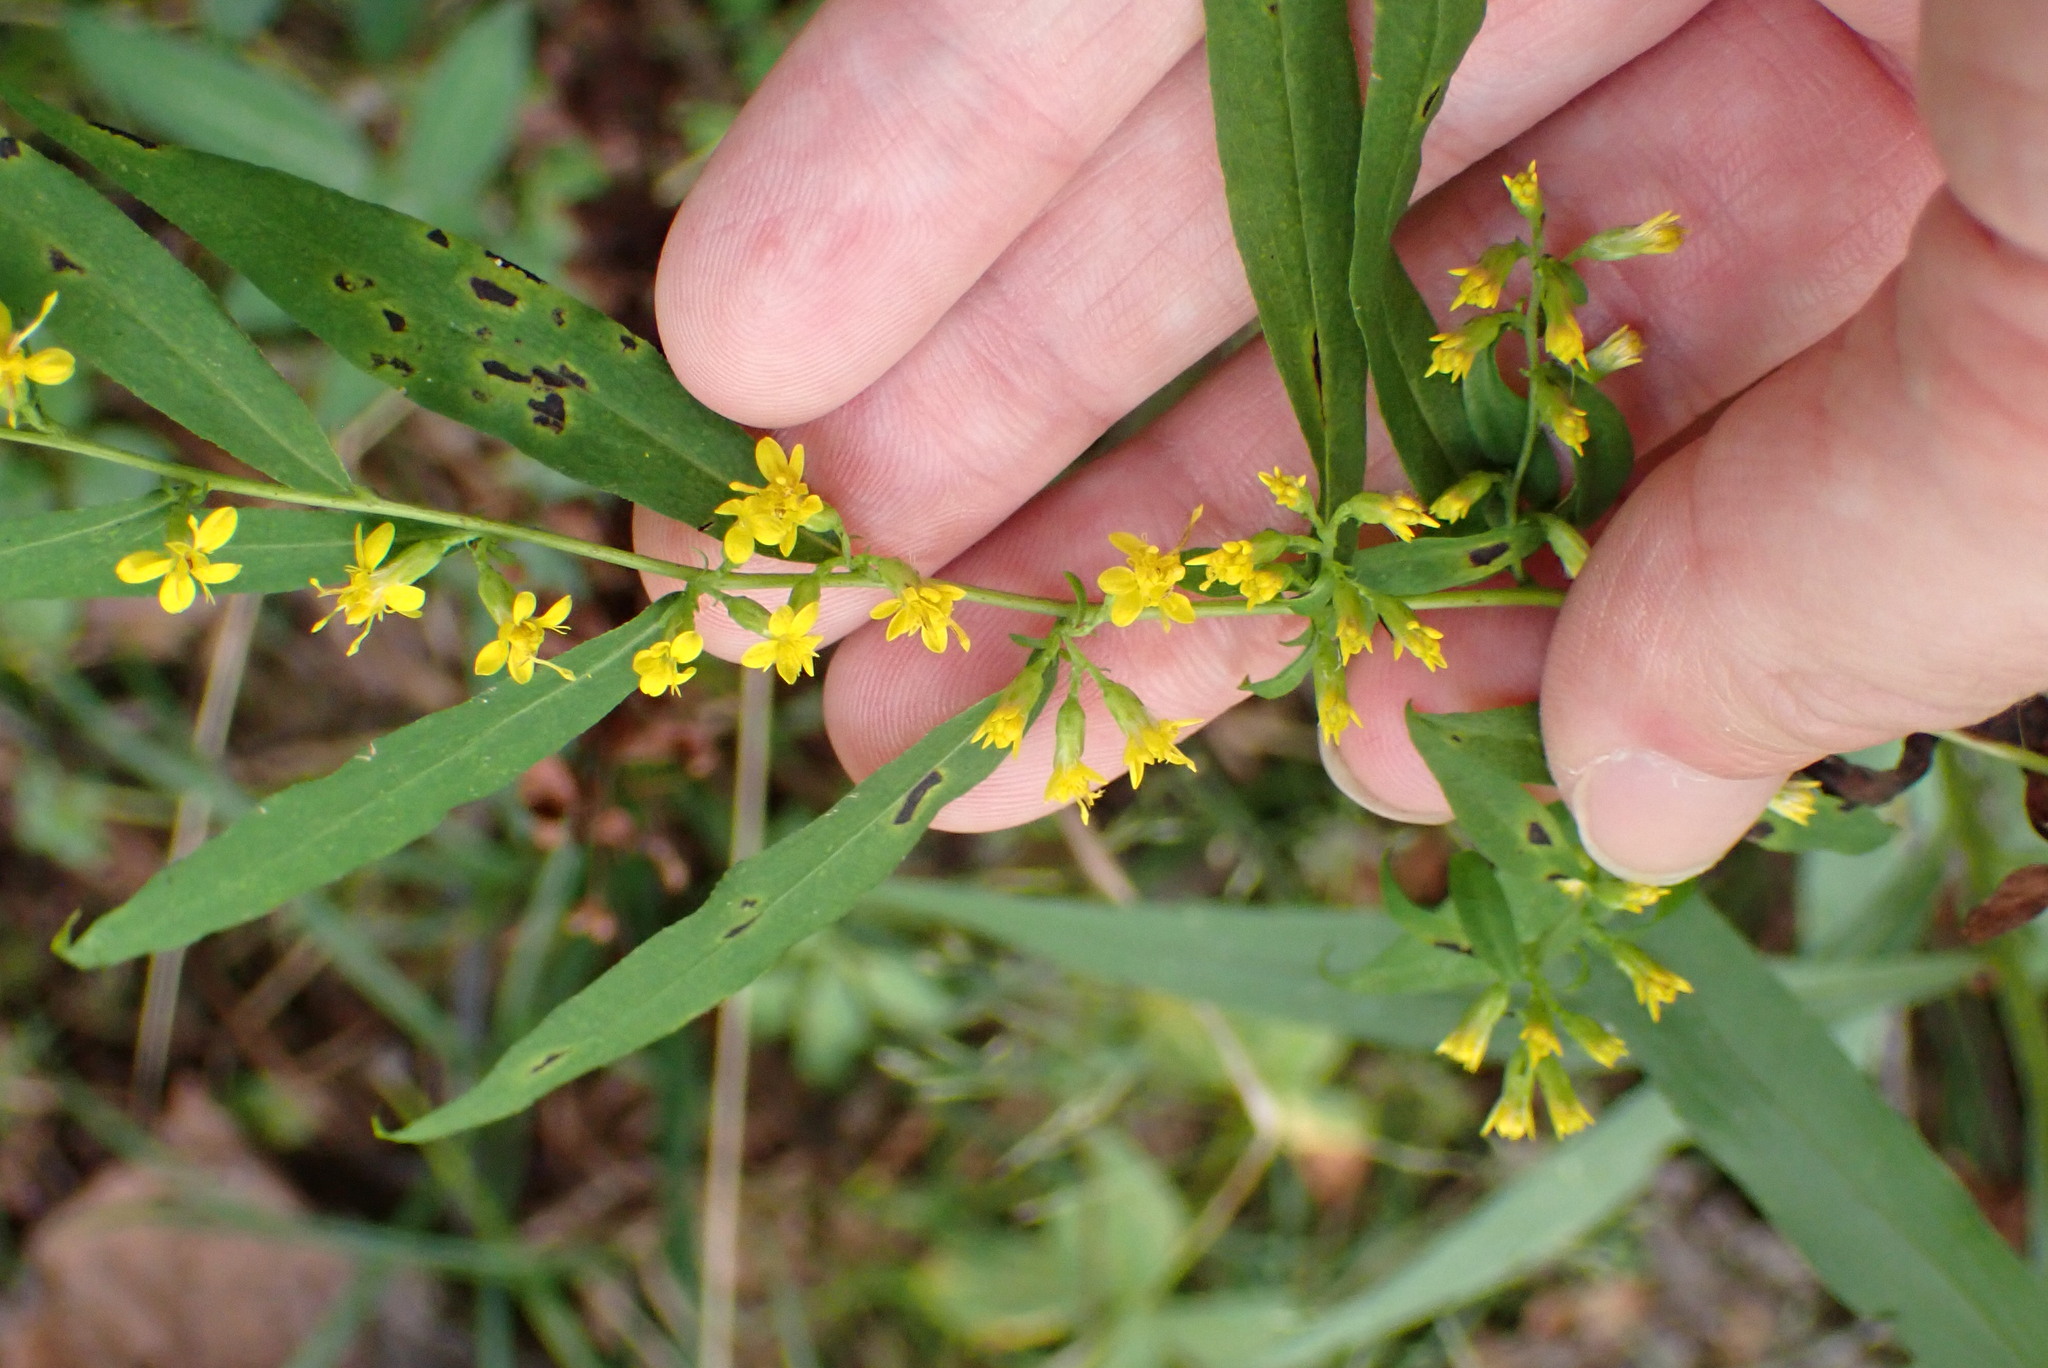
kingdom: Plantae
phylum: Tracheophyta
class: Magnoliopsida
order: Asterales
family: Asteraceae
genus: Solidago
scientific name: Solidago caesia
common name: Woodland goldenrod
